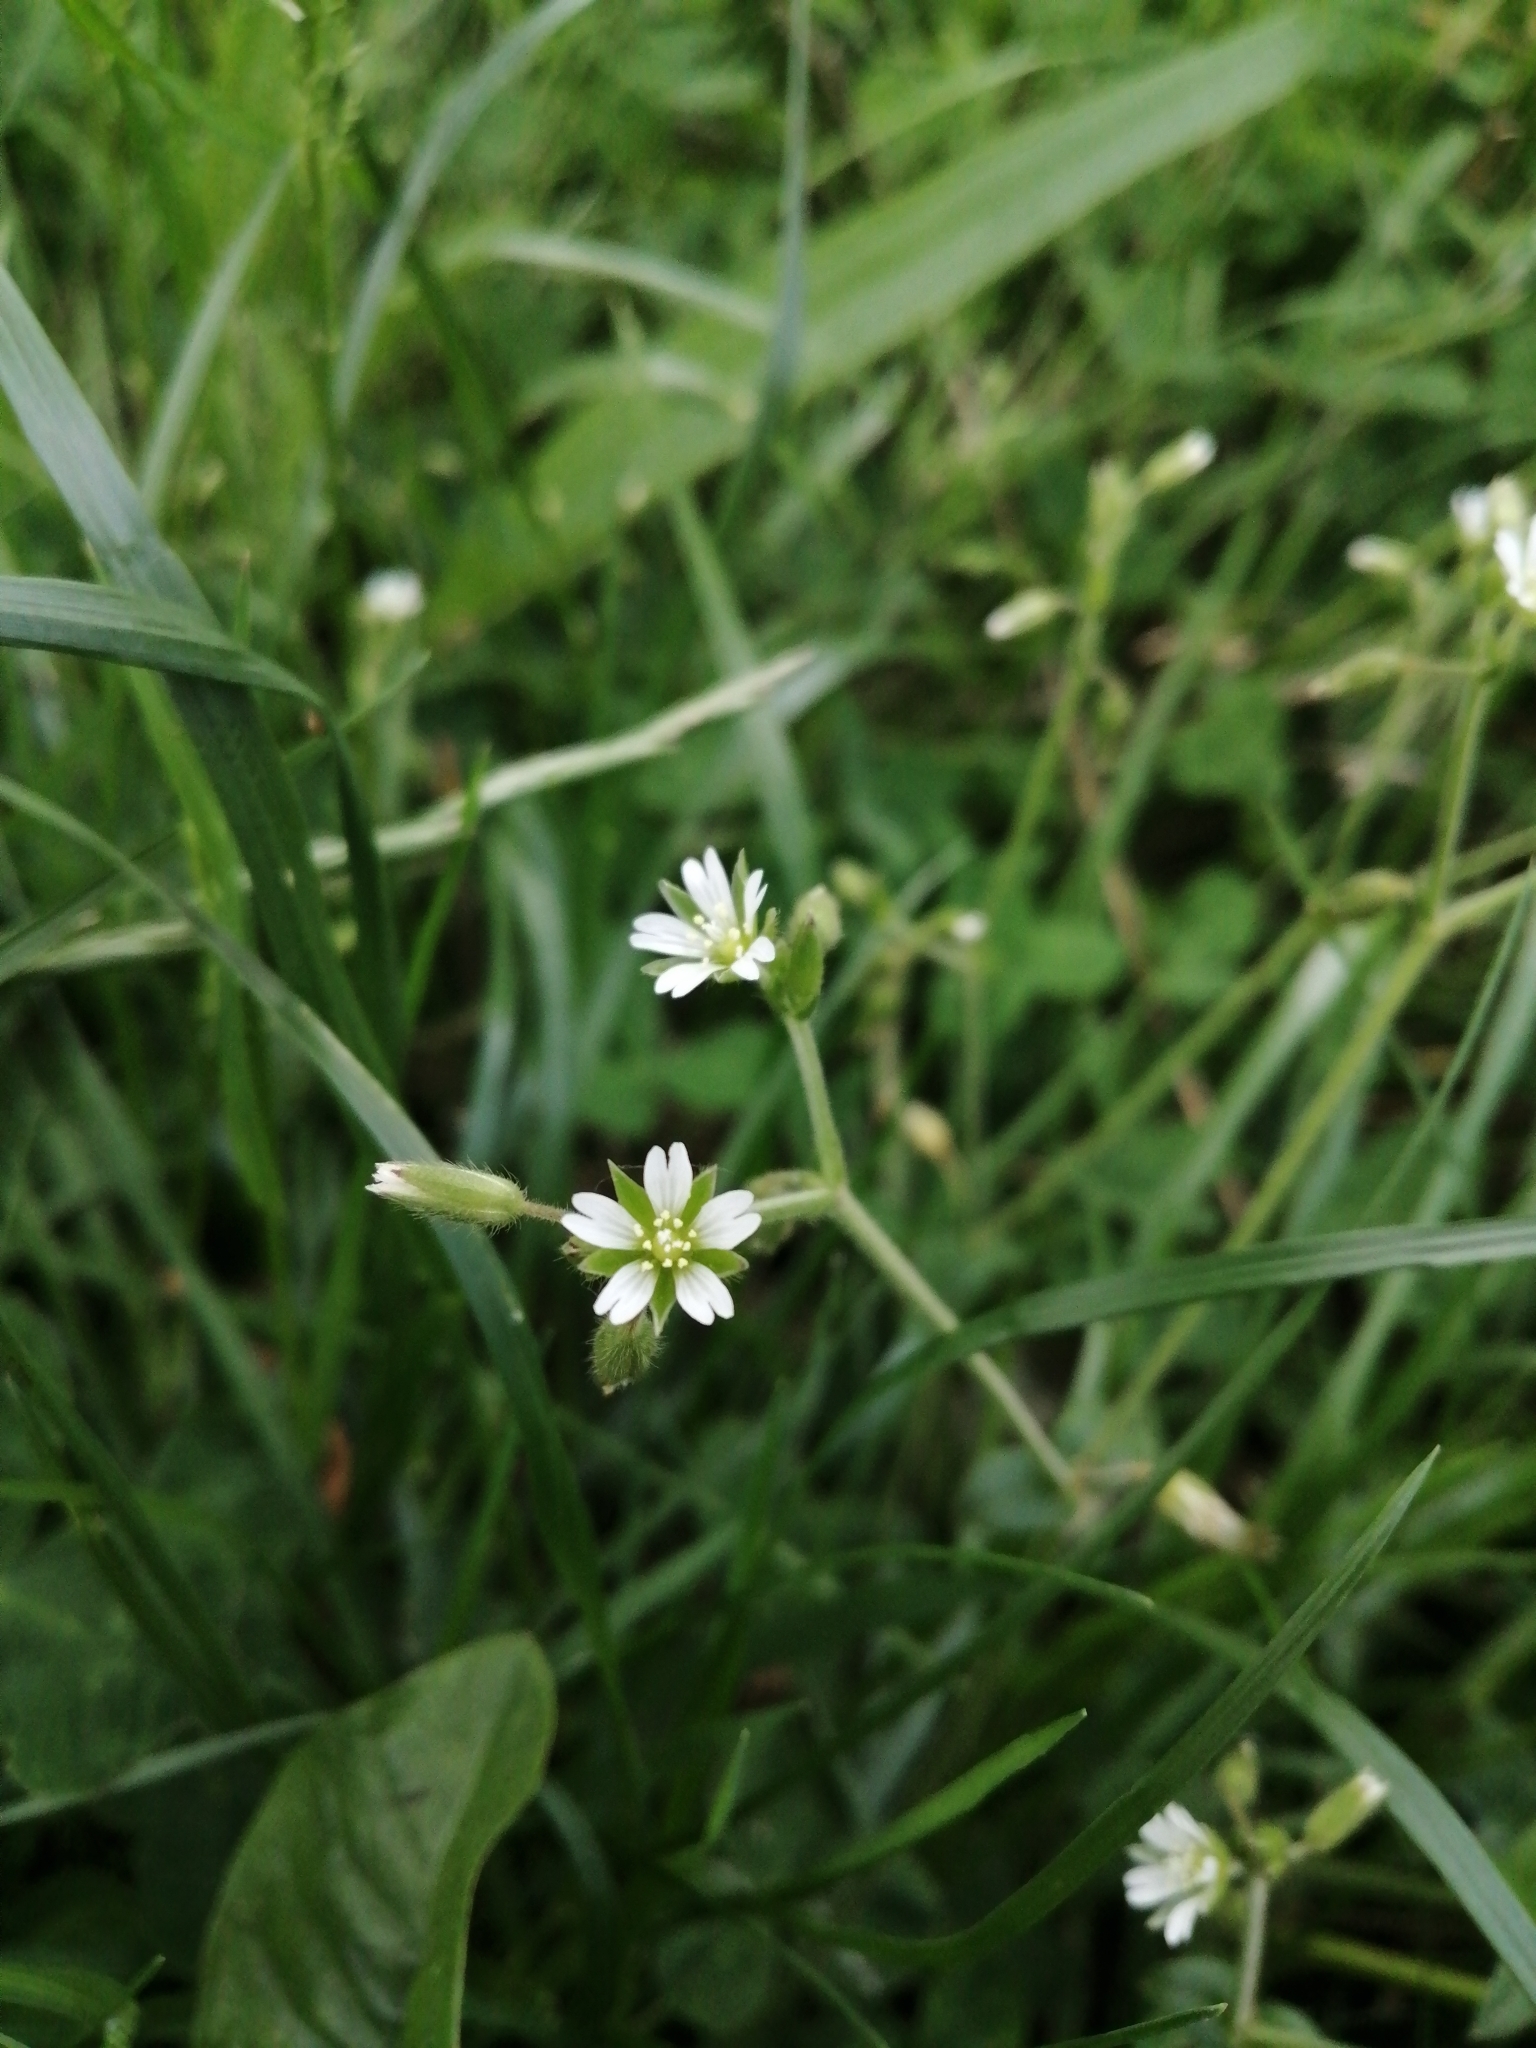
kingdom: Plantae
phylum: Tracheophyta
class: Magnoliopsida
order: Caryophyllales
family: Caryophyllaceae
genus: Cerastium
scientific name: Cerastium fontanum
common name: Common mouse-ear
